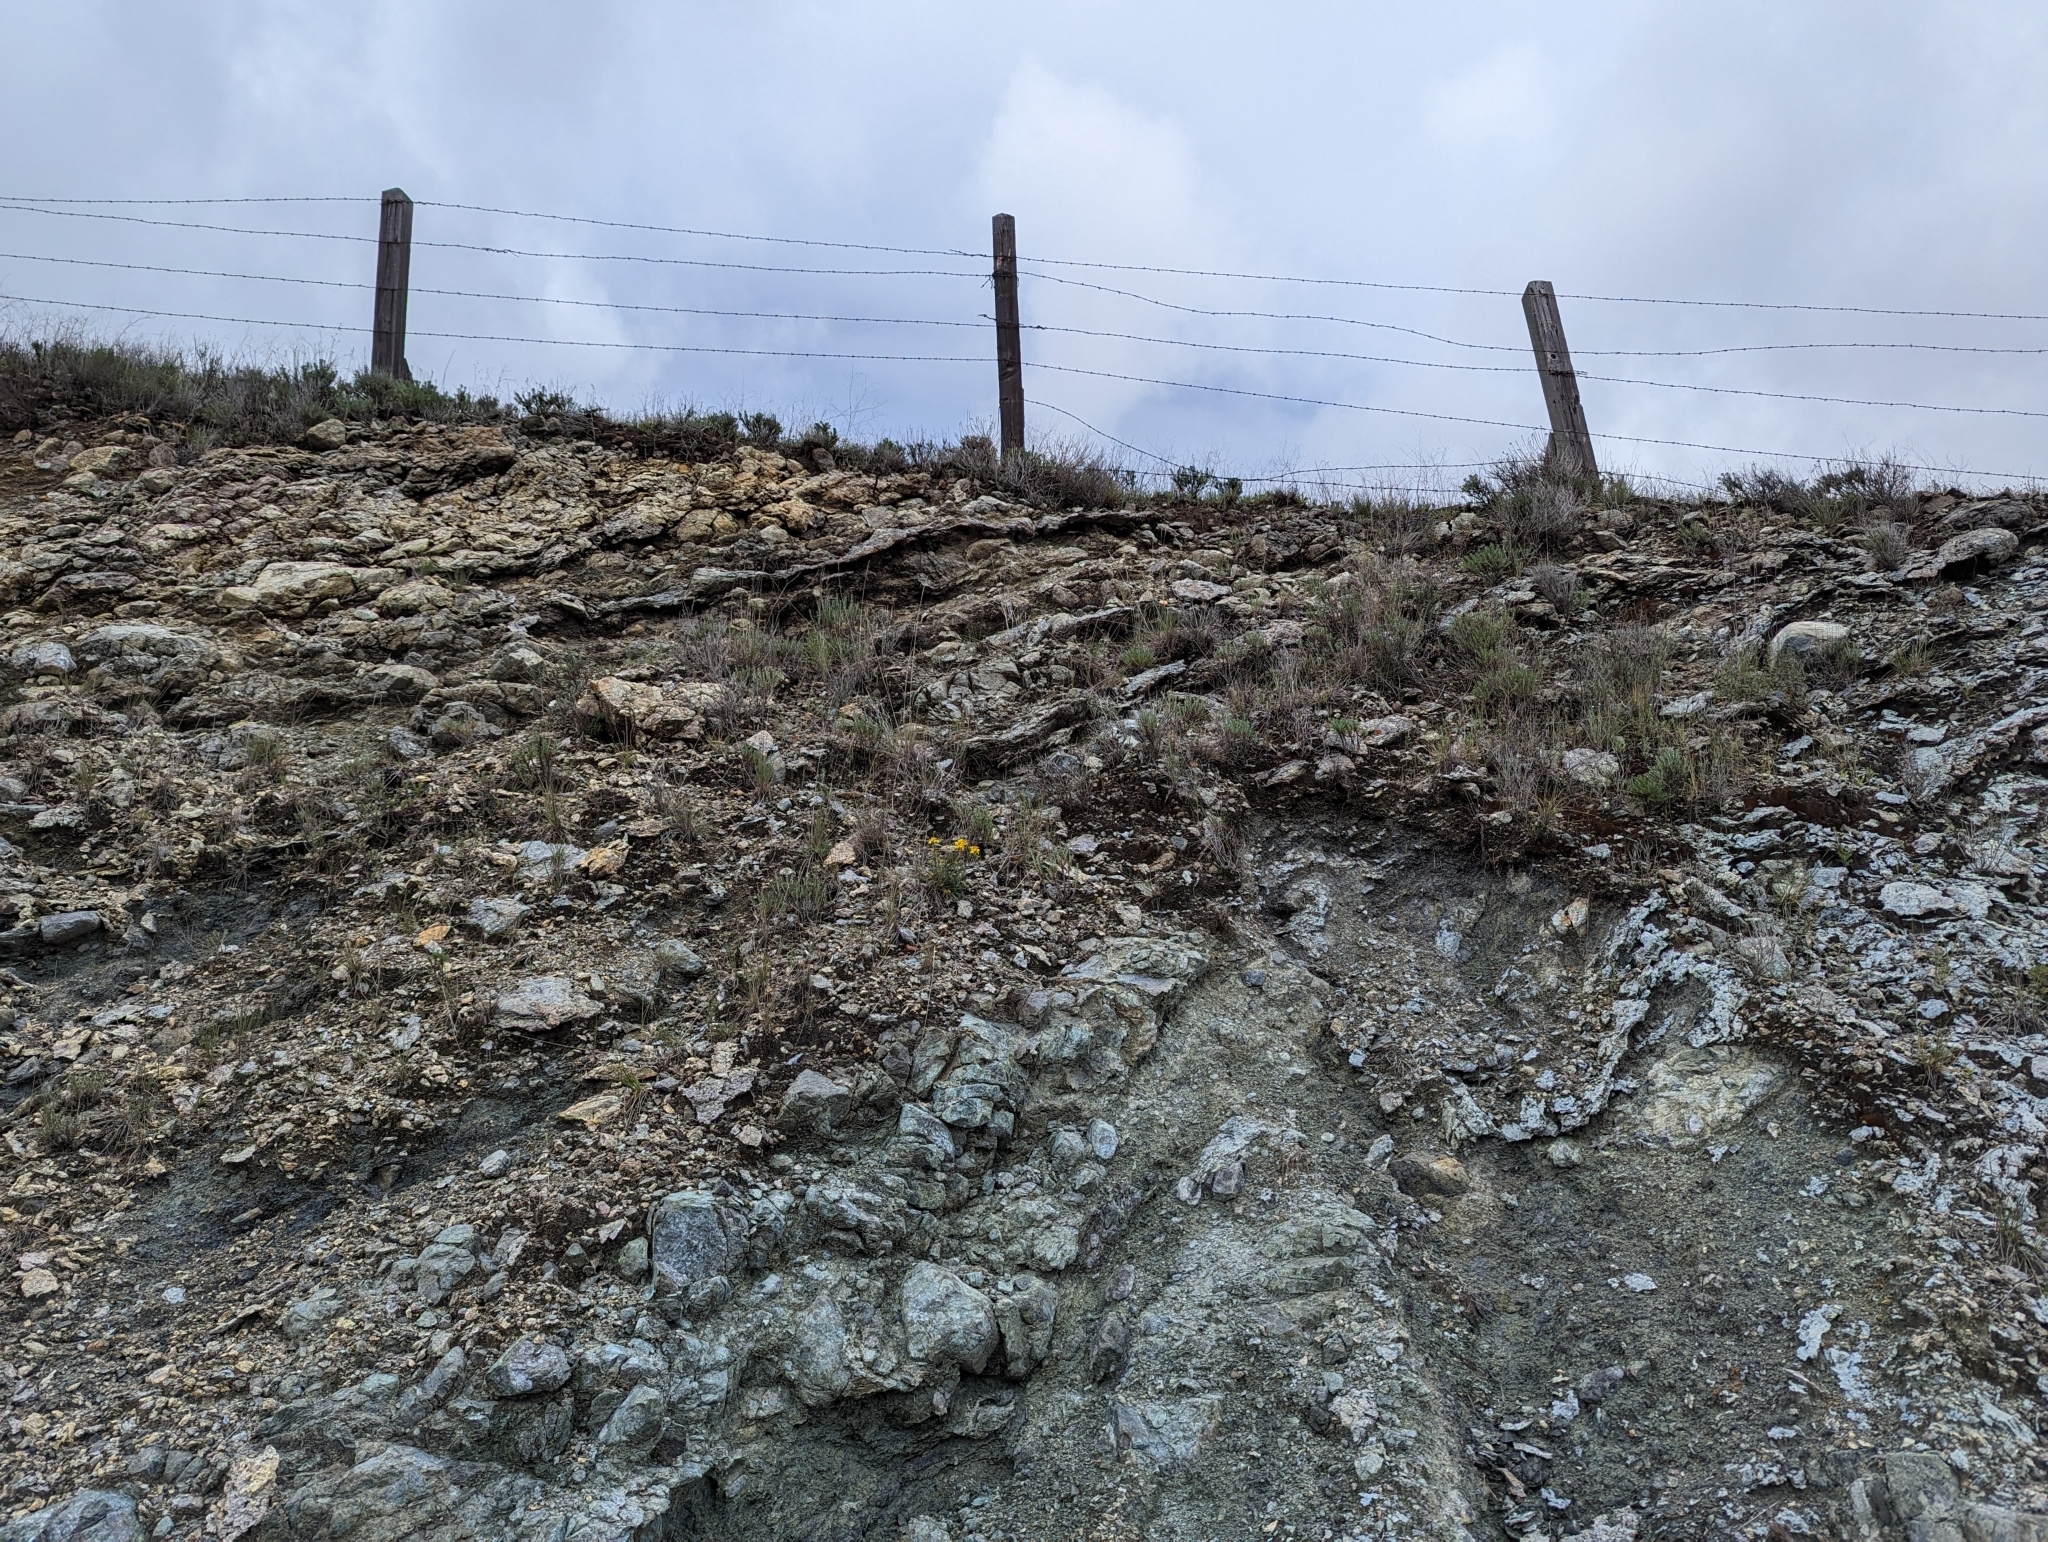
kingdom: Plantae
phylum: Tracheophyta
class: Magnoliopsida
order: Brassicales
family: Brassicaceae
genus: Erysimum
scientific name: Erysimum franciscanum
